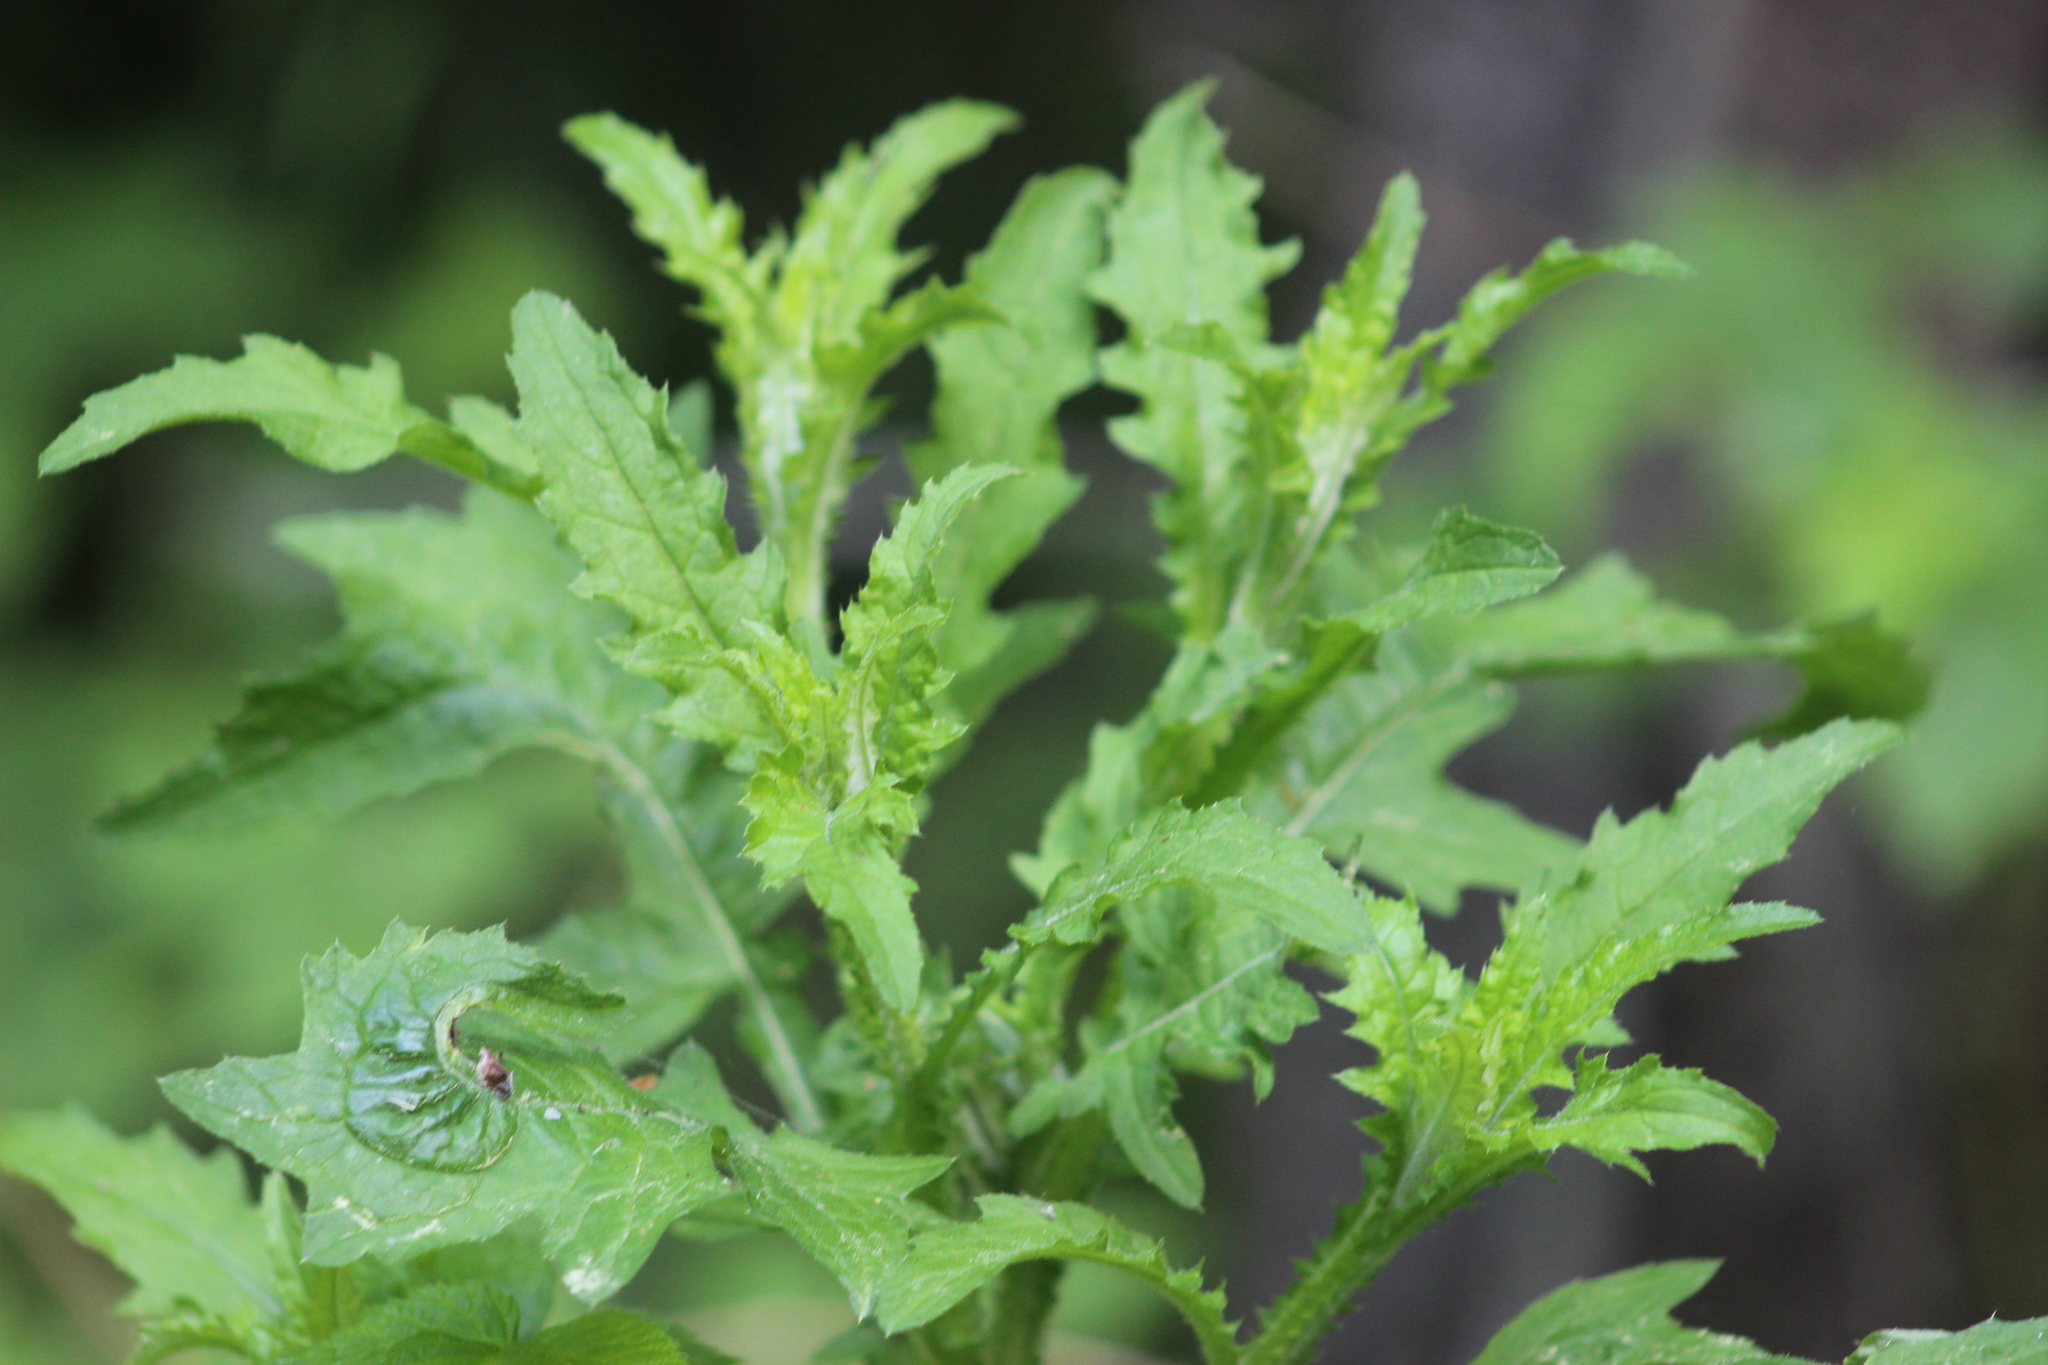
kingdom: Plantae
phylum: Tracheophyta
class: Magnoliopsida
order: Asterales
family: Asteraceae
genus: Carduus
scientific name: Carduus crispus
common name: Welted thistle
